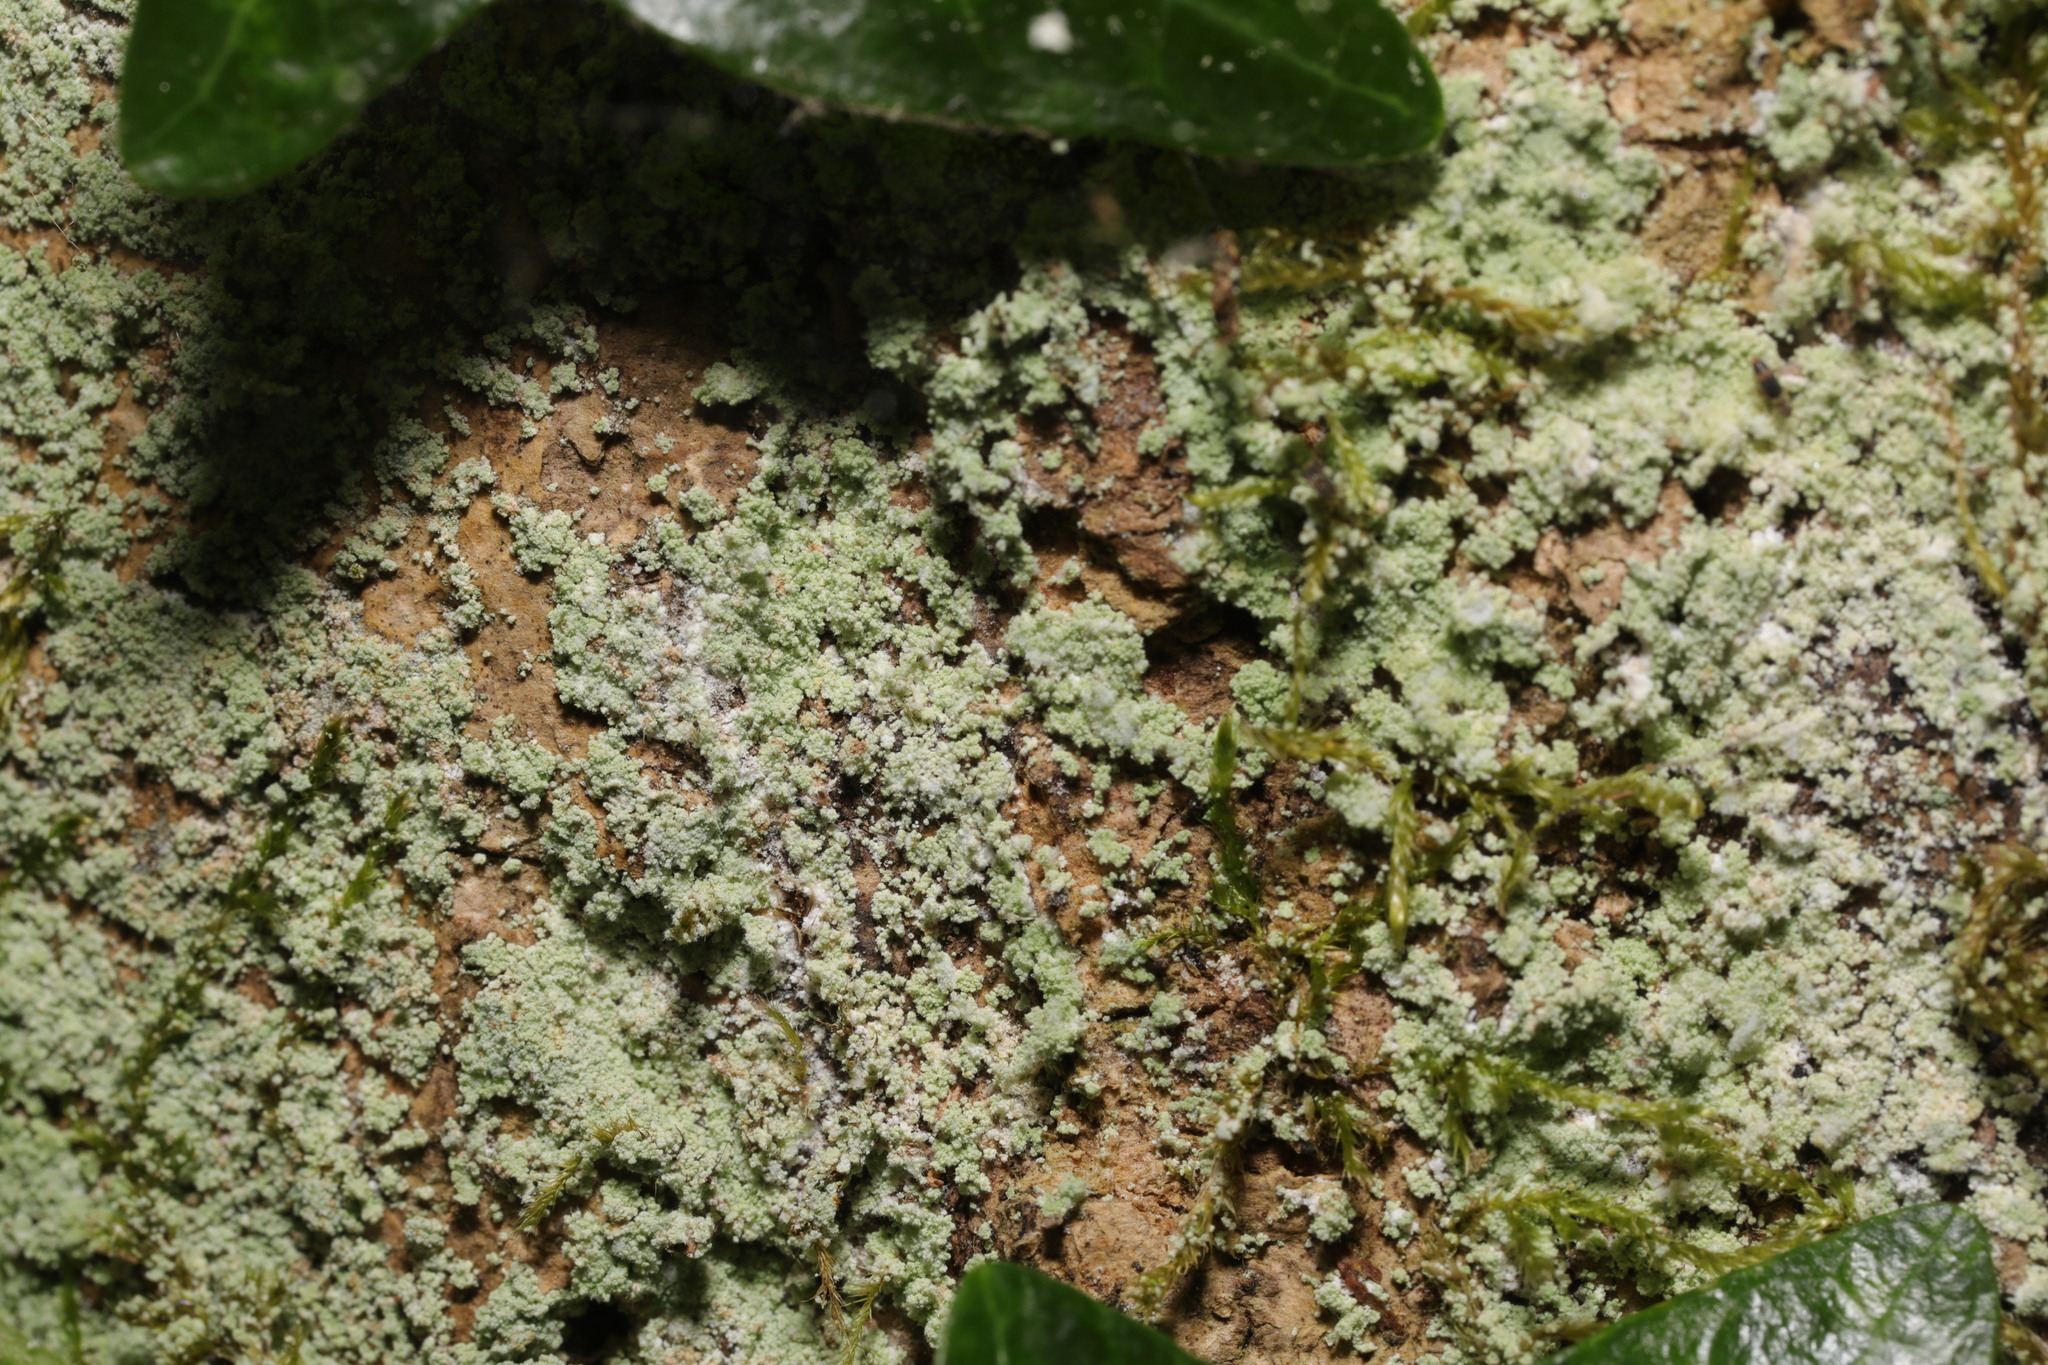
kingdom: Fungi
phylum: Ascomycota
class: Lecanoromycetes
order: Lecanorales
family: Stereocaulaceae
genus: Lepraria
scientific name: Lepraria
